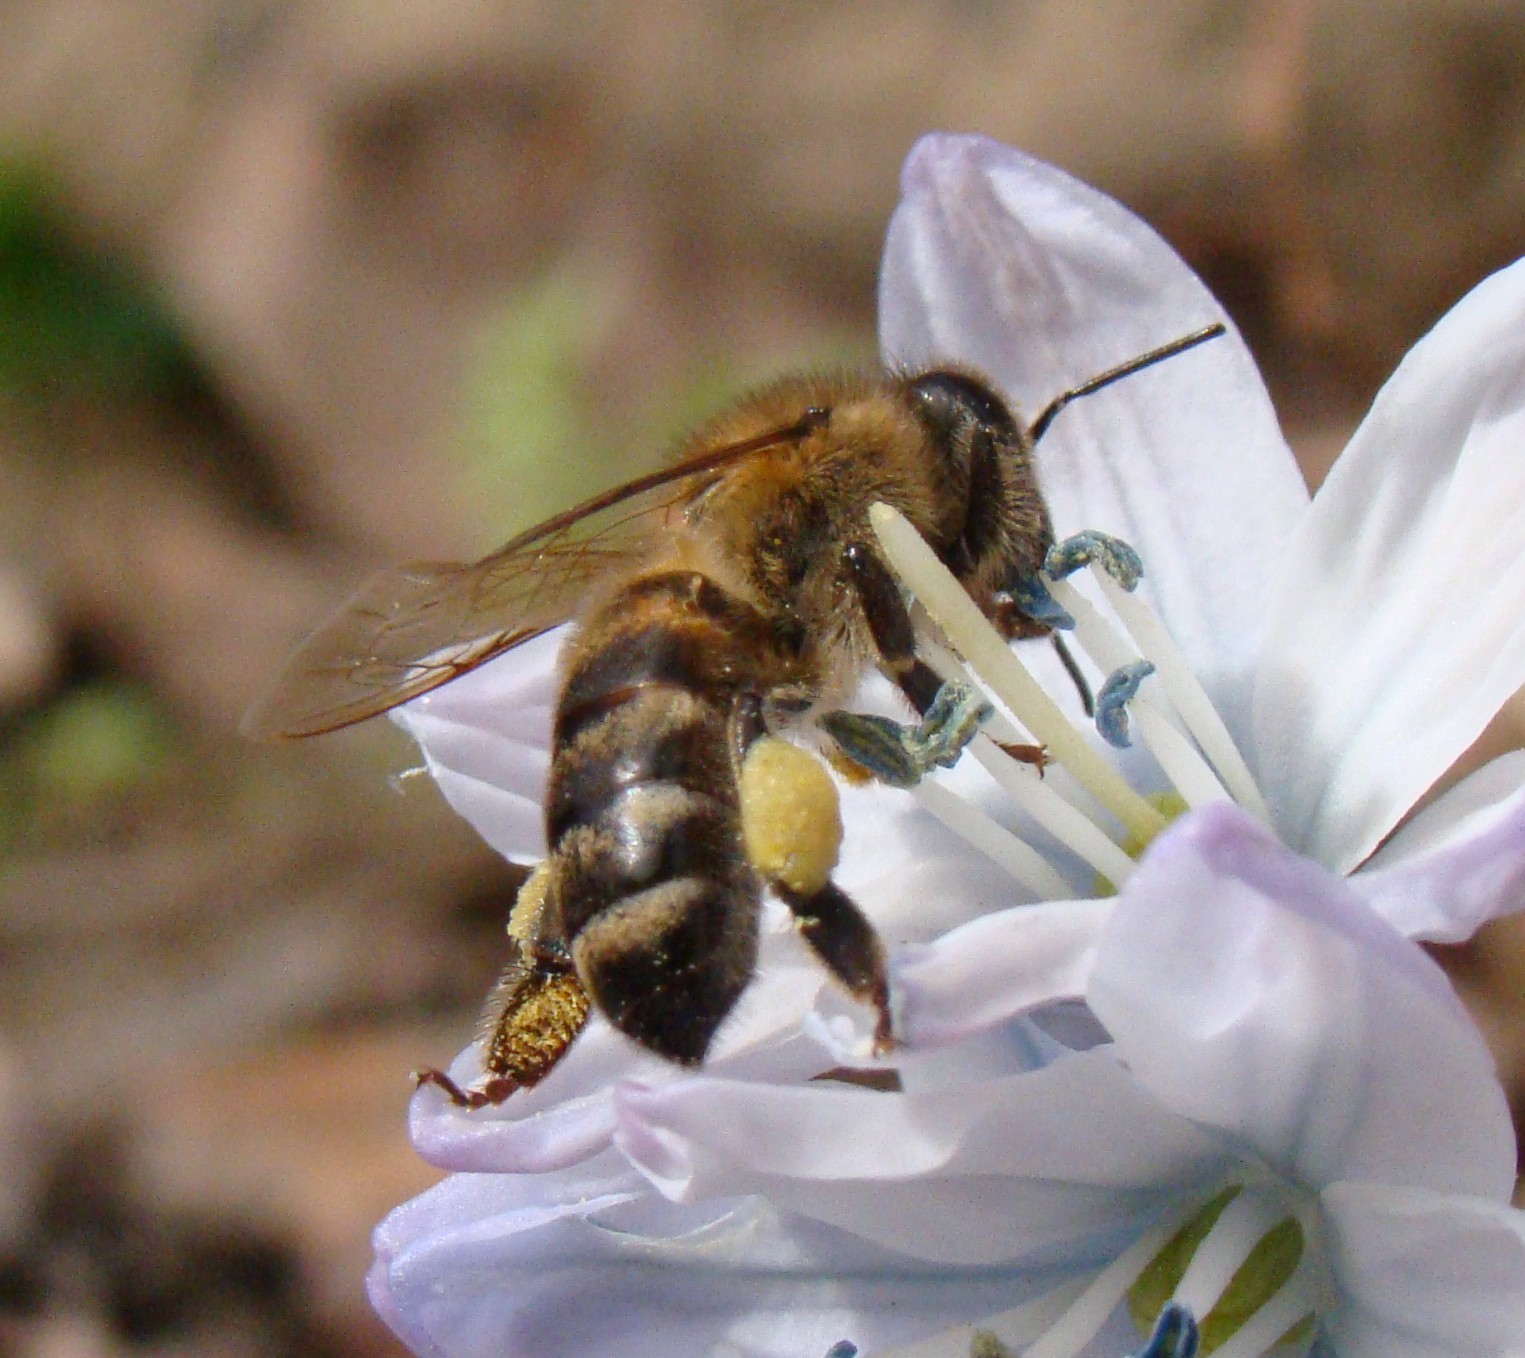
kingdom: Animalia
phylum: Arthropoda
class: Insecta
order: Hymenoptera
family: Apidae
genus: Apis
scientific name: Apis mellifera
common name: Honey bee
